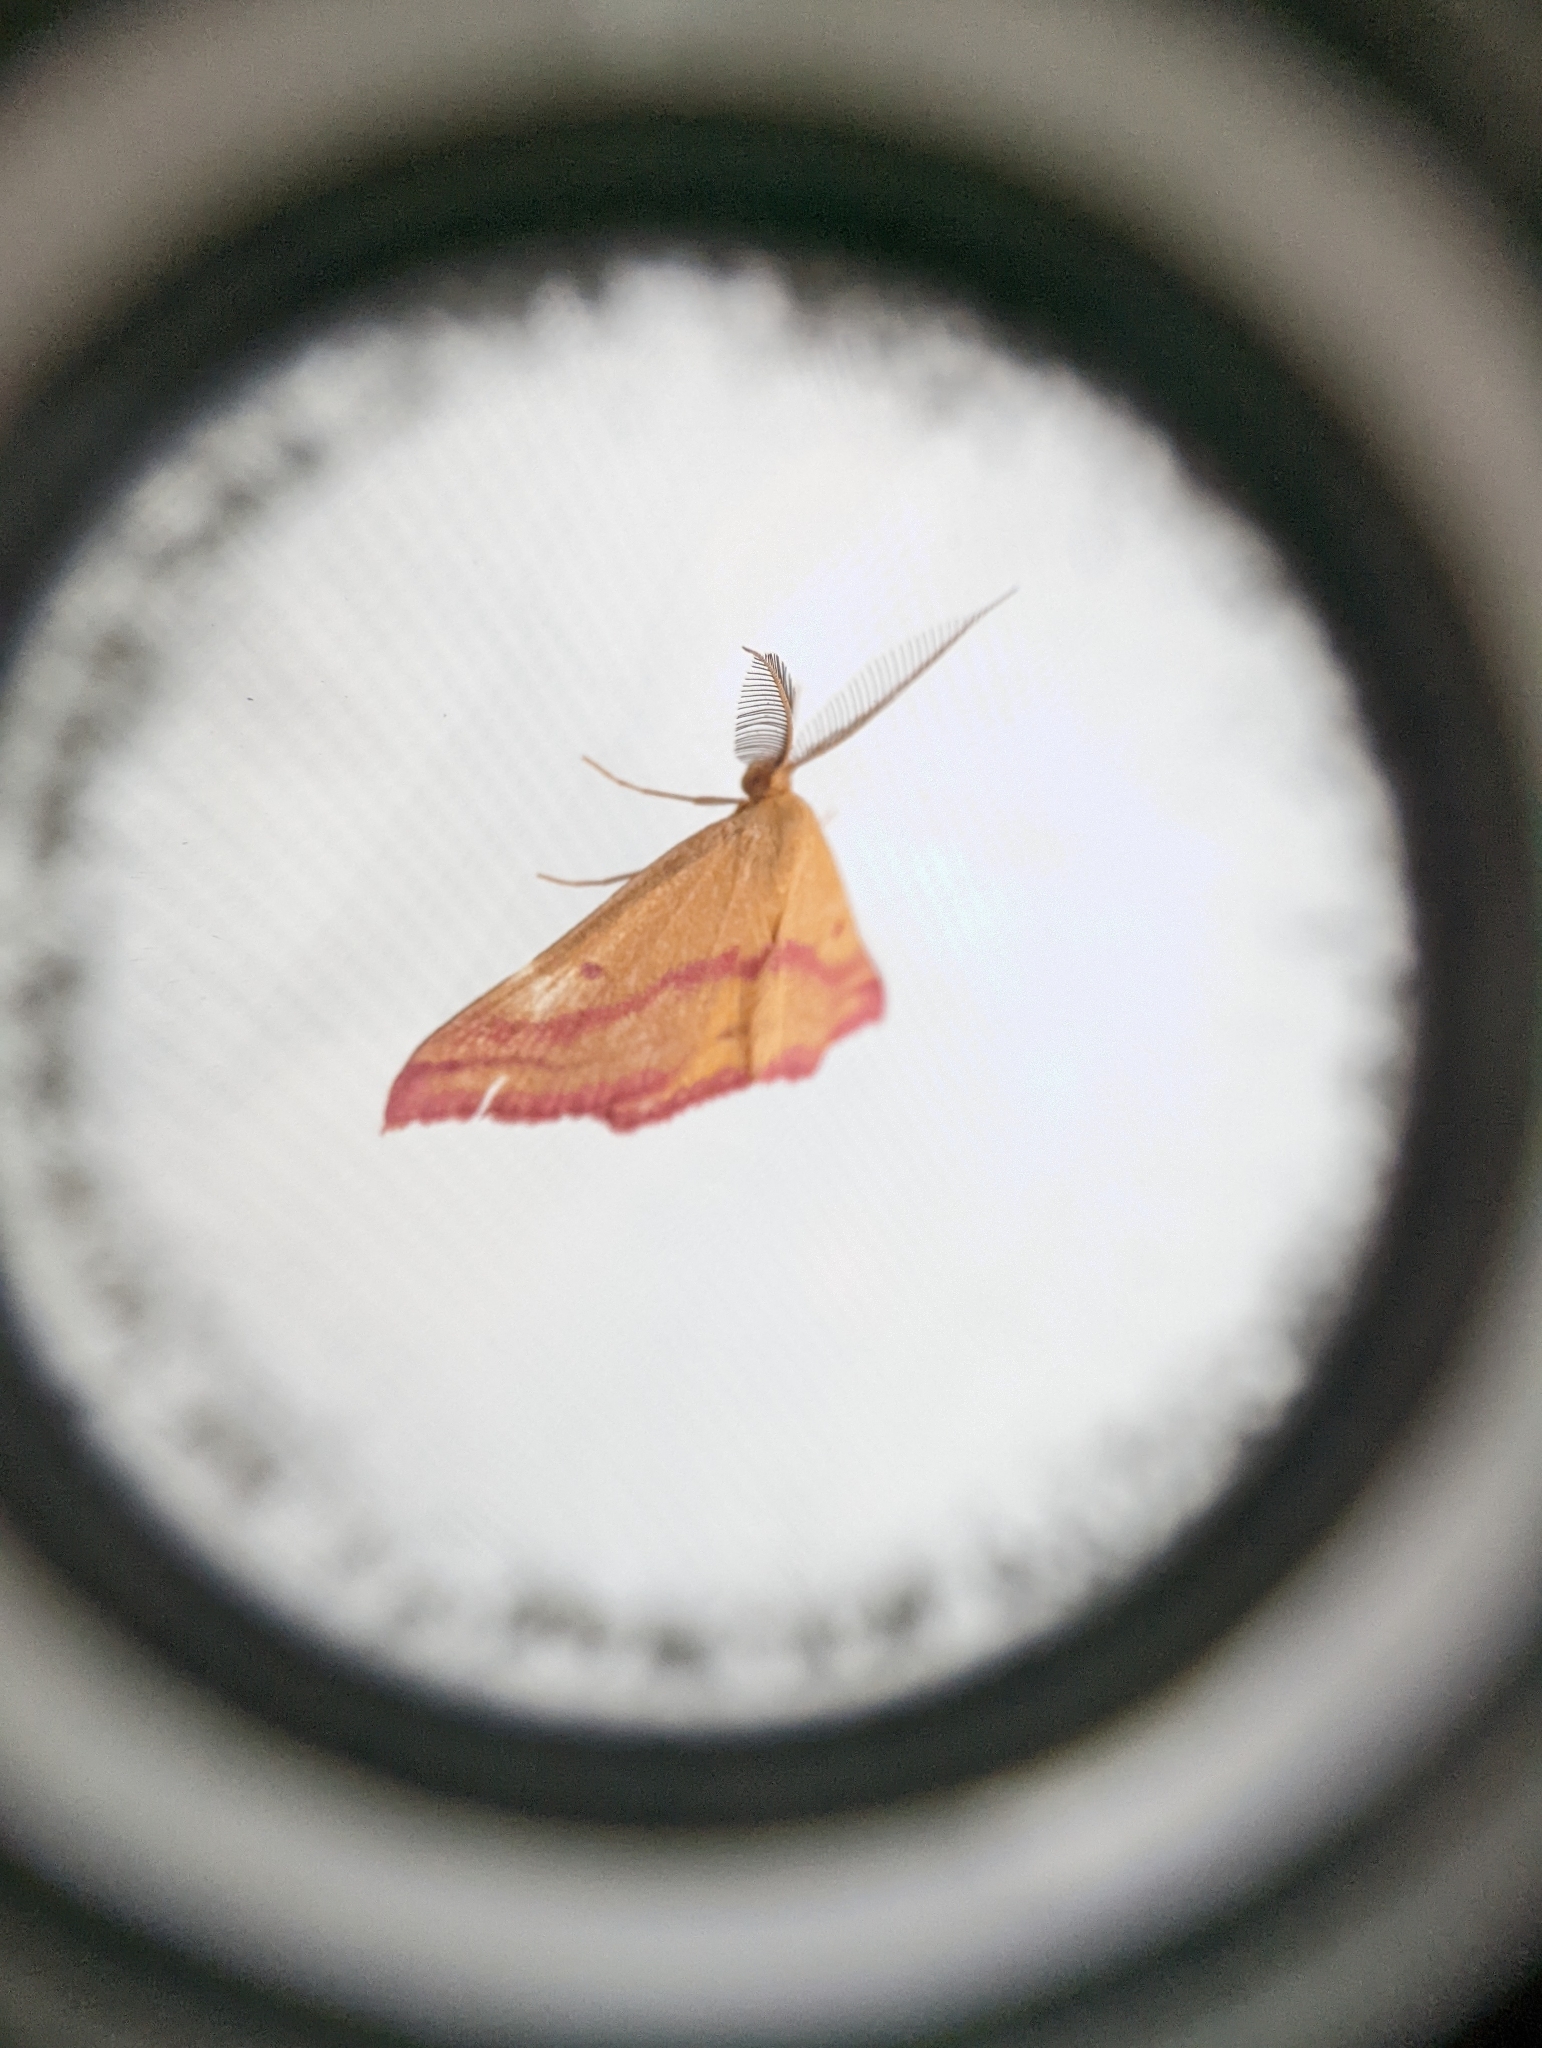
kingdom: Animalia
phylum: Arthropoda
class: Insecta
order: Lepidoptera
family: Geometridae
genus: Haematopis
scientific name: Haematopis grataria
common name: Chickweed geometer
